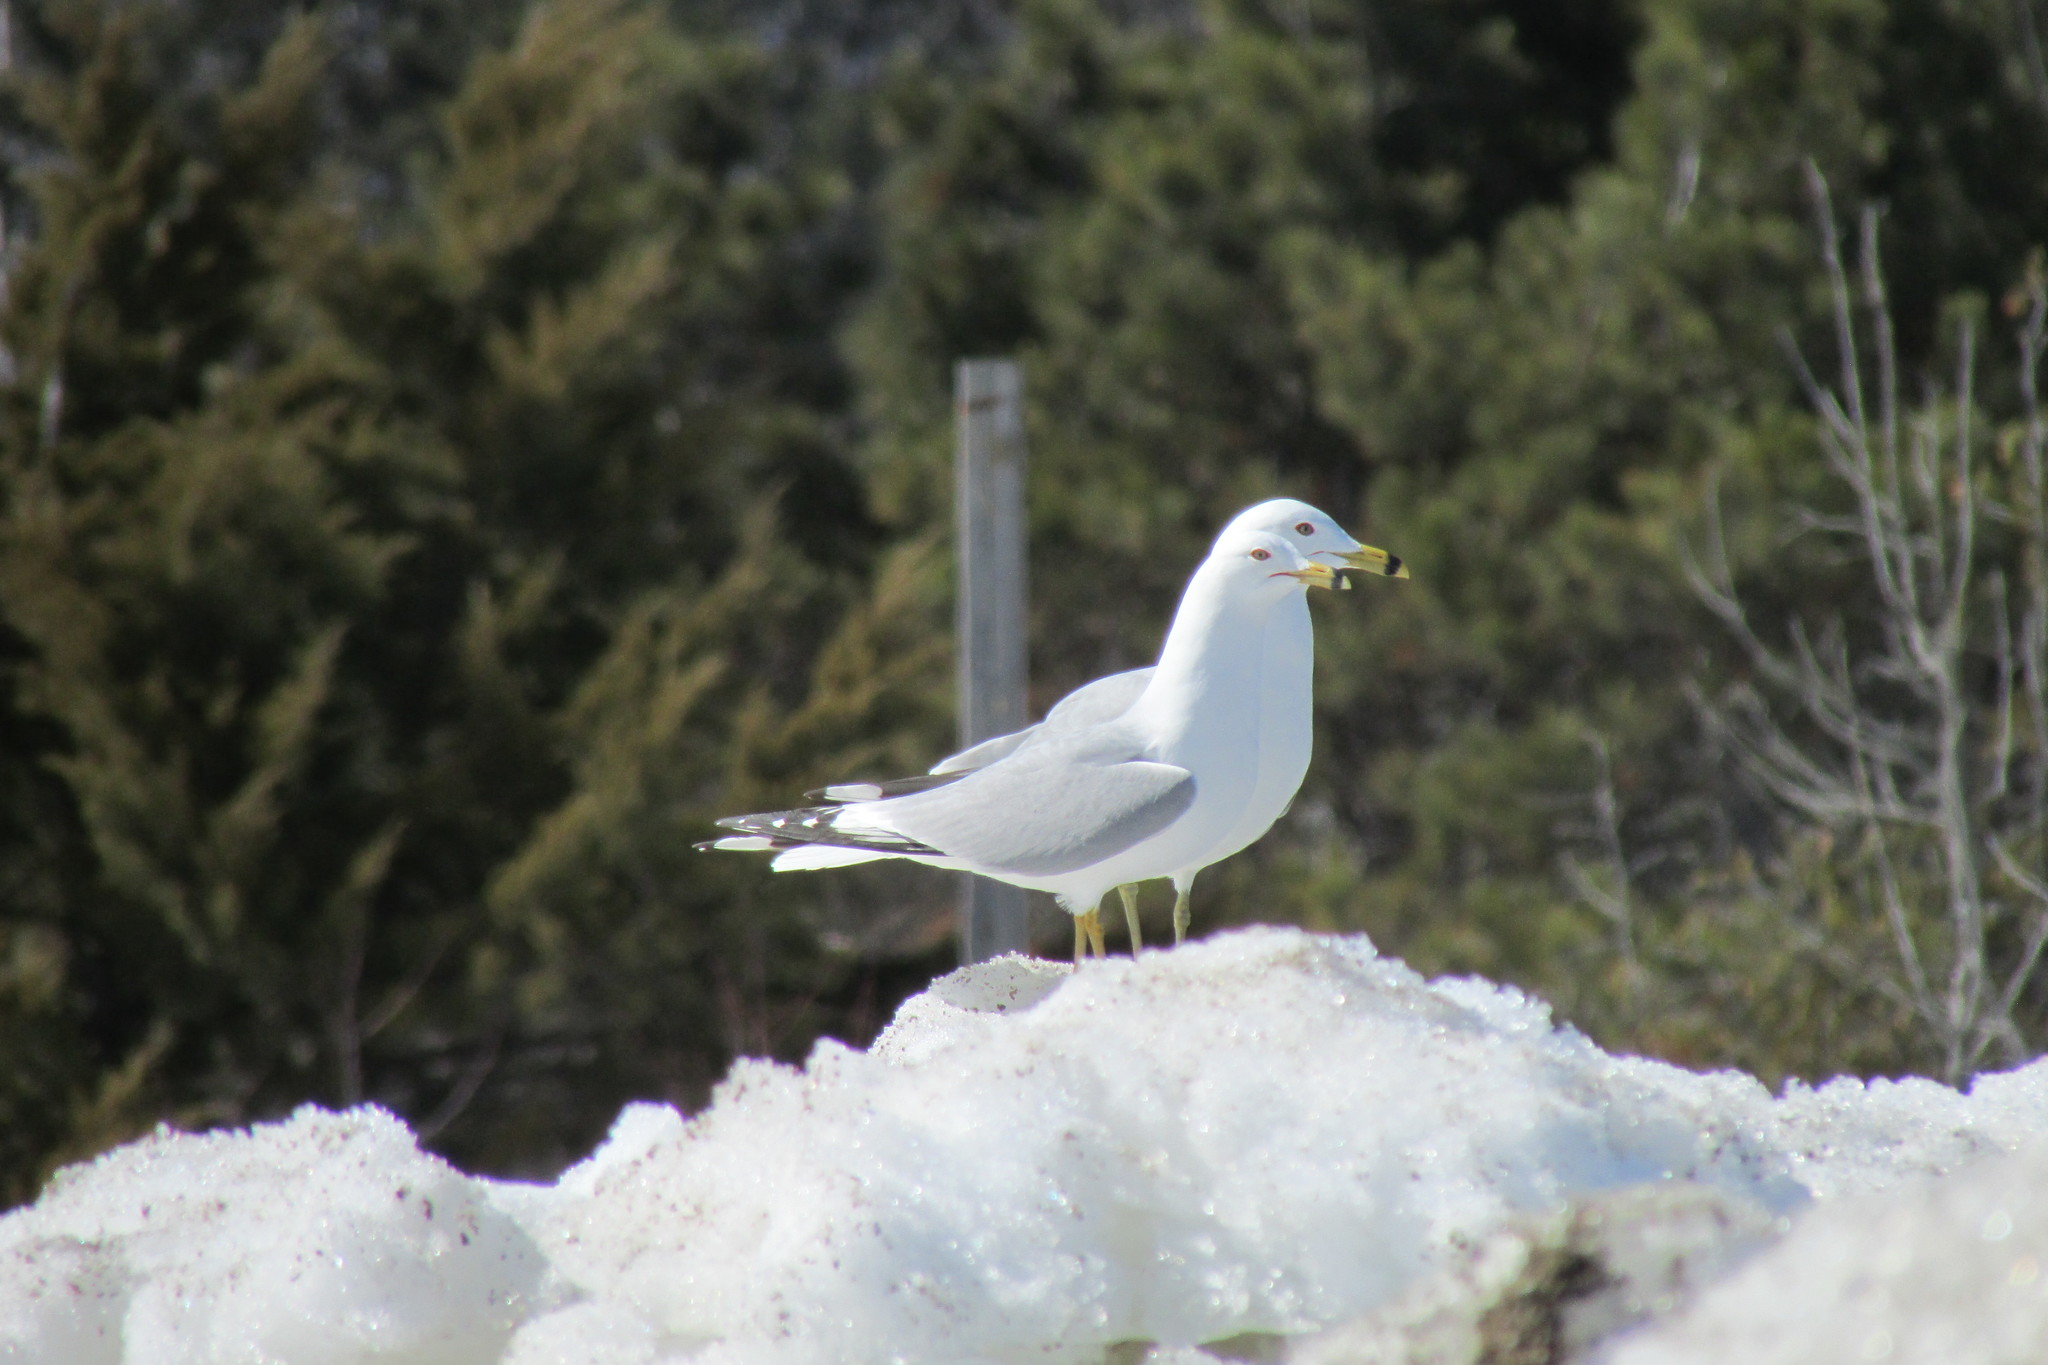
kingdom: Animalia
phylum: Chordata
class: Aves
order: Charadriiformes
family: Laridae
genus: Larus
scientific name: Larus delawarensis
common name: Ring-billed gull
